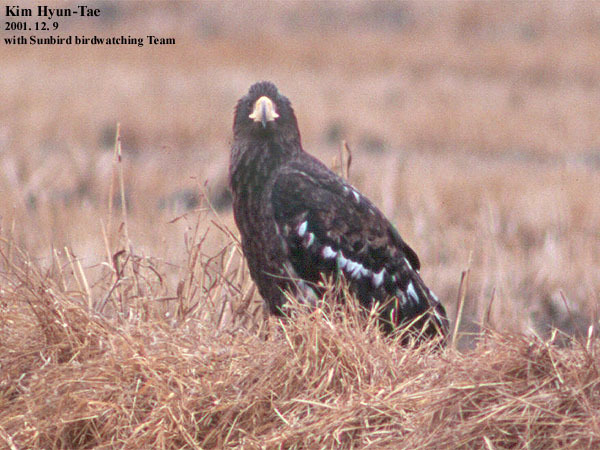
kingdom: Animalia
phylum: Chordata
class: Aves
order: Accipitriformes
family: Accipitridae
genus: Haliaeetus
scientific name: Haliaeetus pelagicus
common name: Steller's sea eagle
